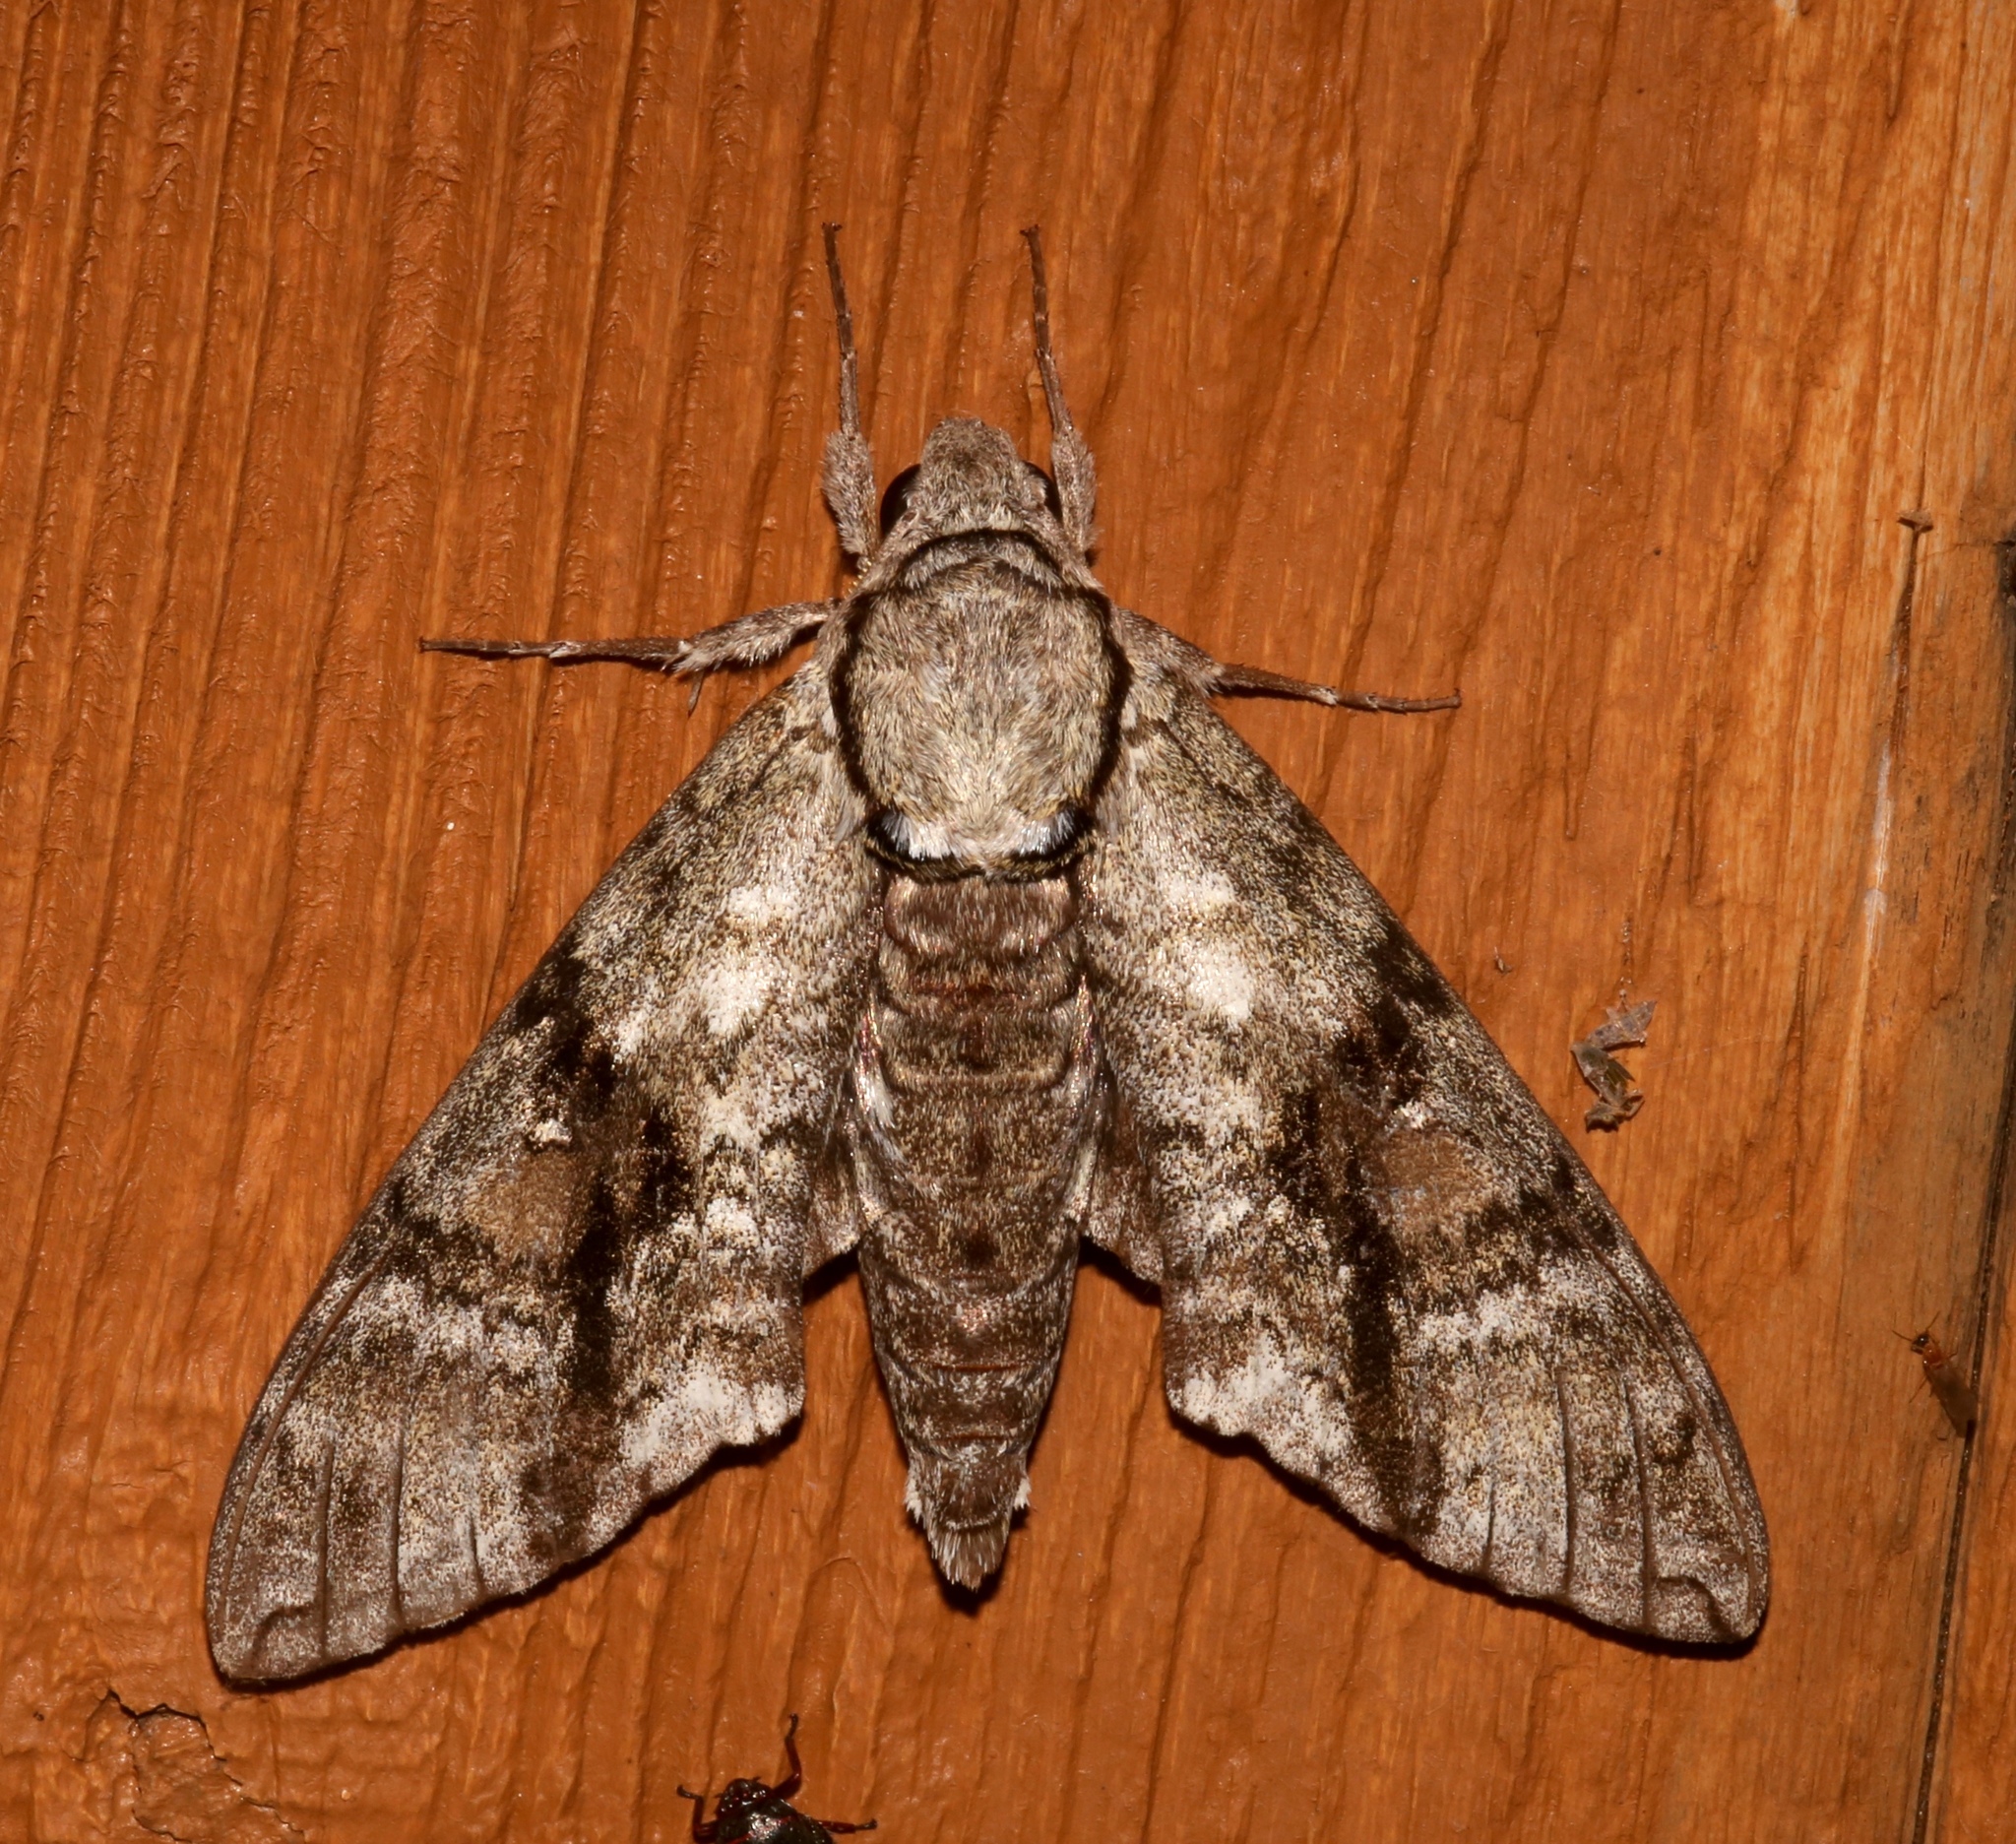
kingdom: Animalia
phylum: Arthropoda
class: Insecta
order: Lepidoptera
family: Sphingidae
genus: Manduca
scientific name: Manduca jasminearum
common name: Ash sphinx
